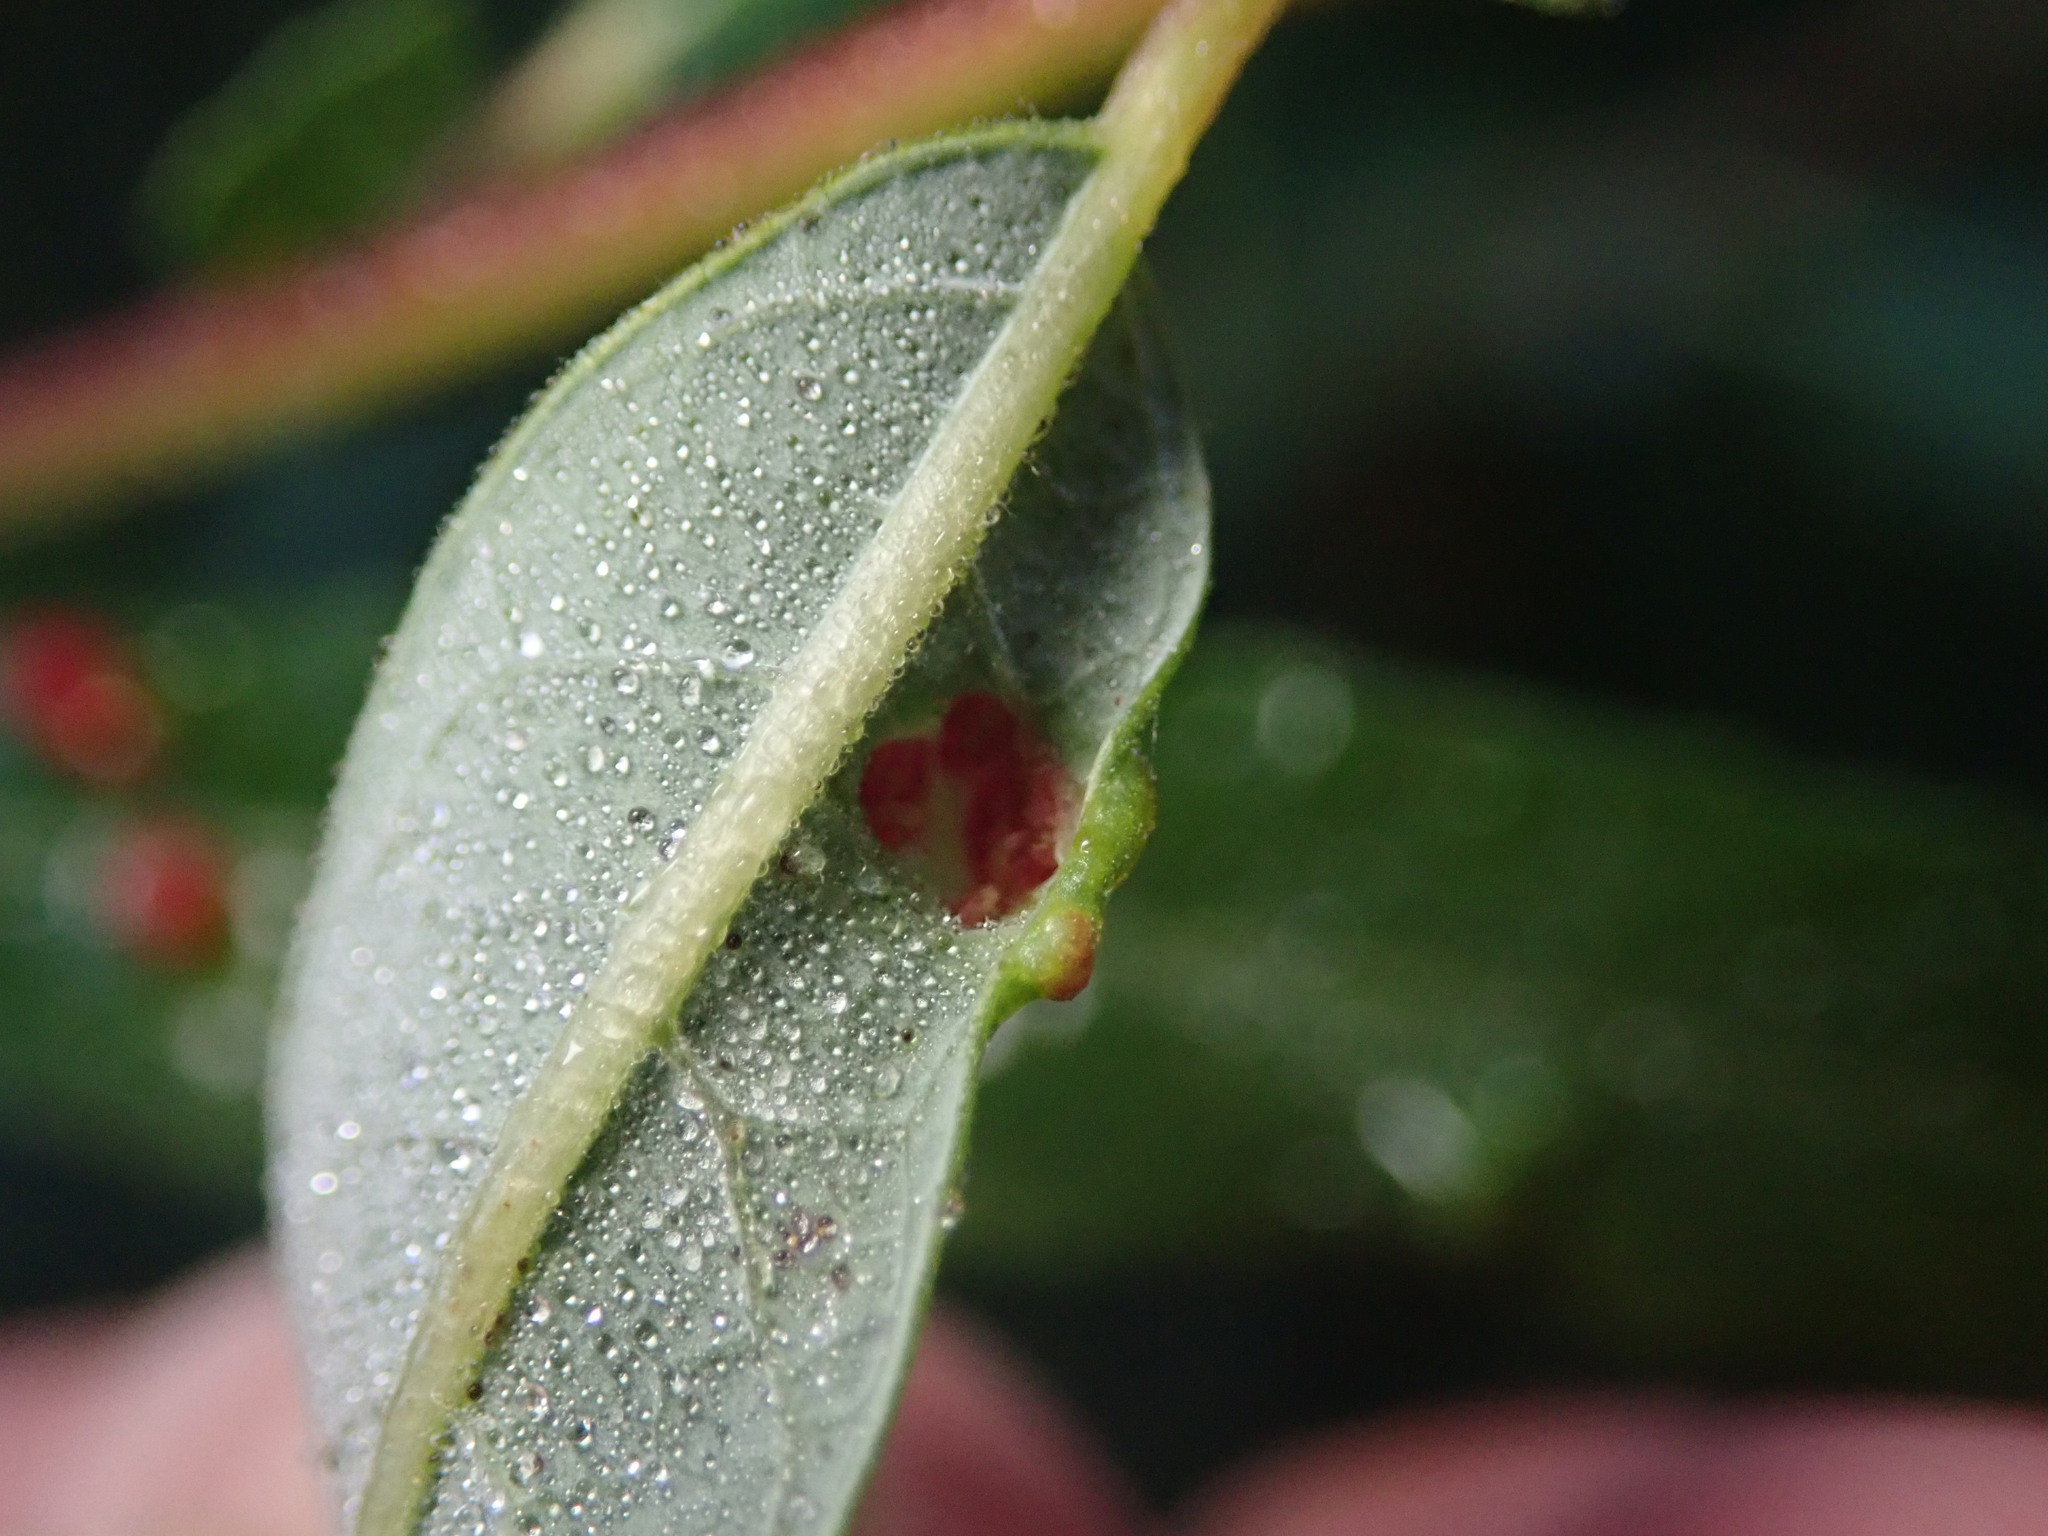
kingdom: Animalia
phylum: Arthropoda
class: Arachnida
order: Trombidiformes
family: Eriophyidae
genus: Aculus
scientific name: Aculus tetanothrix
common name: Willow bead gall mite
